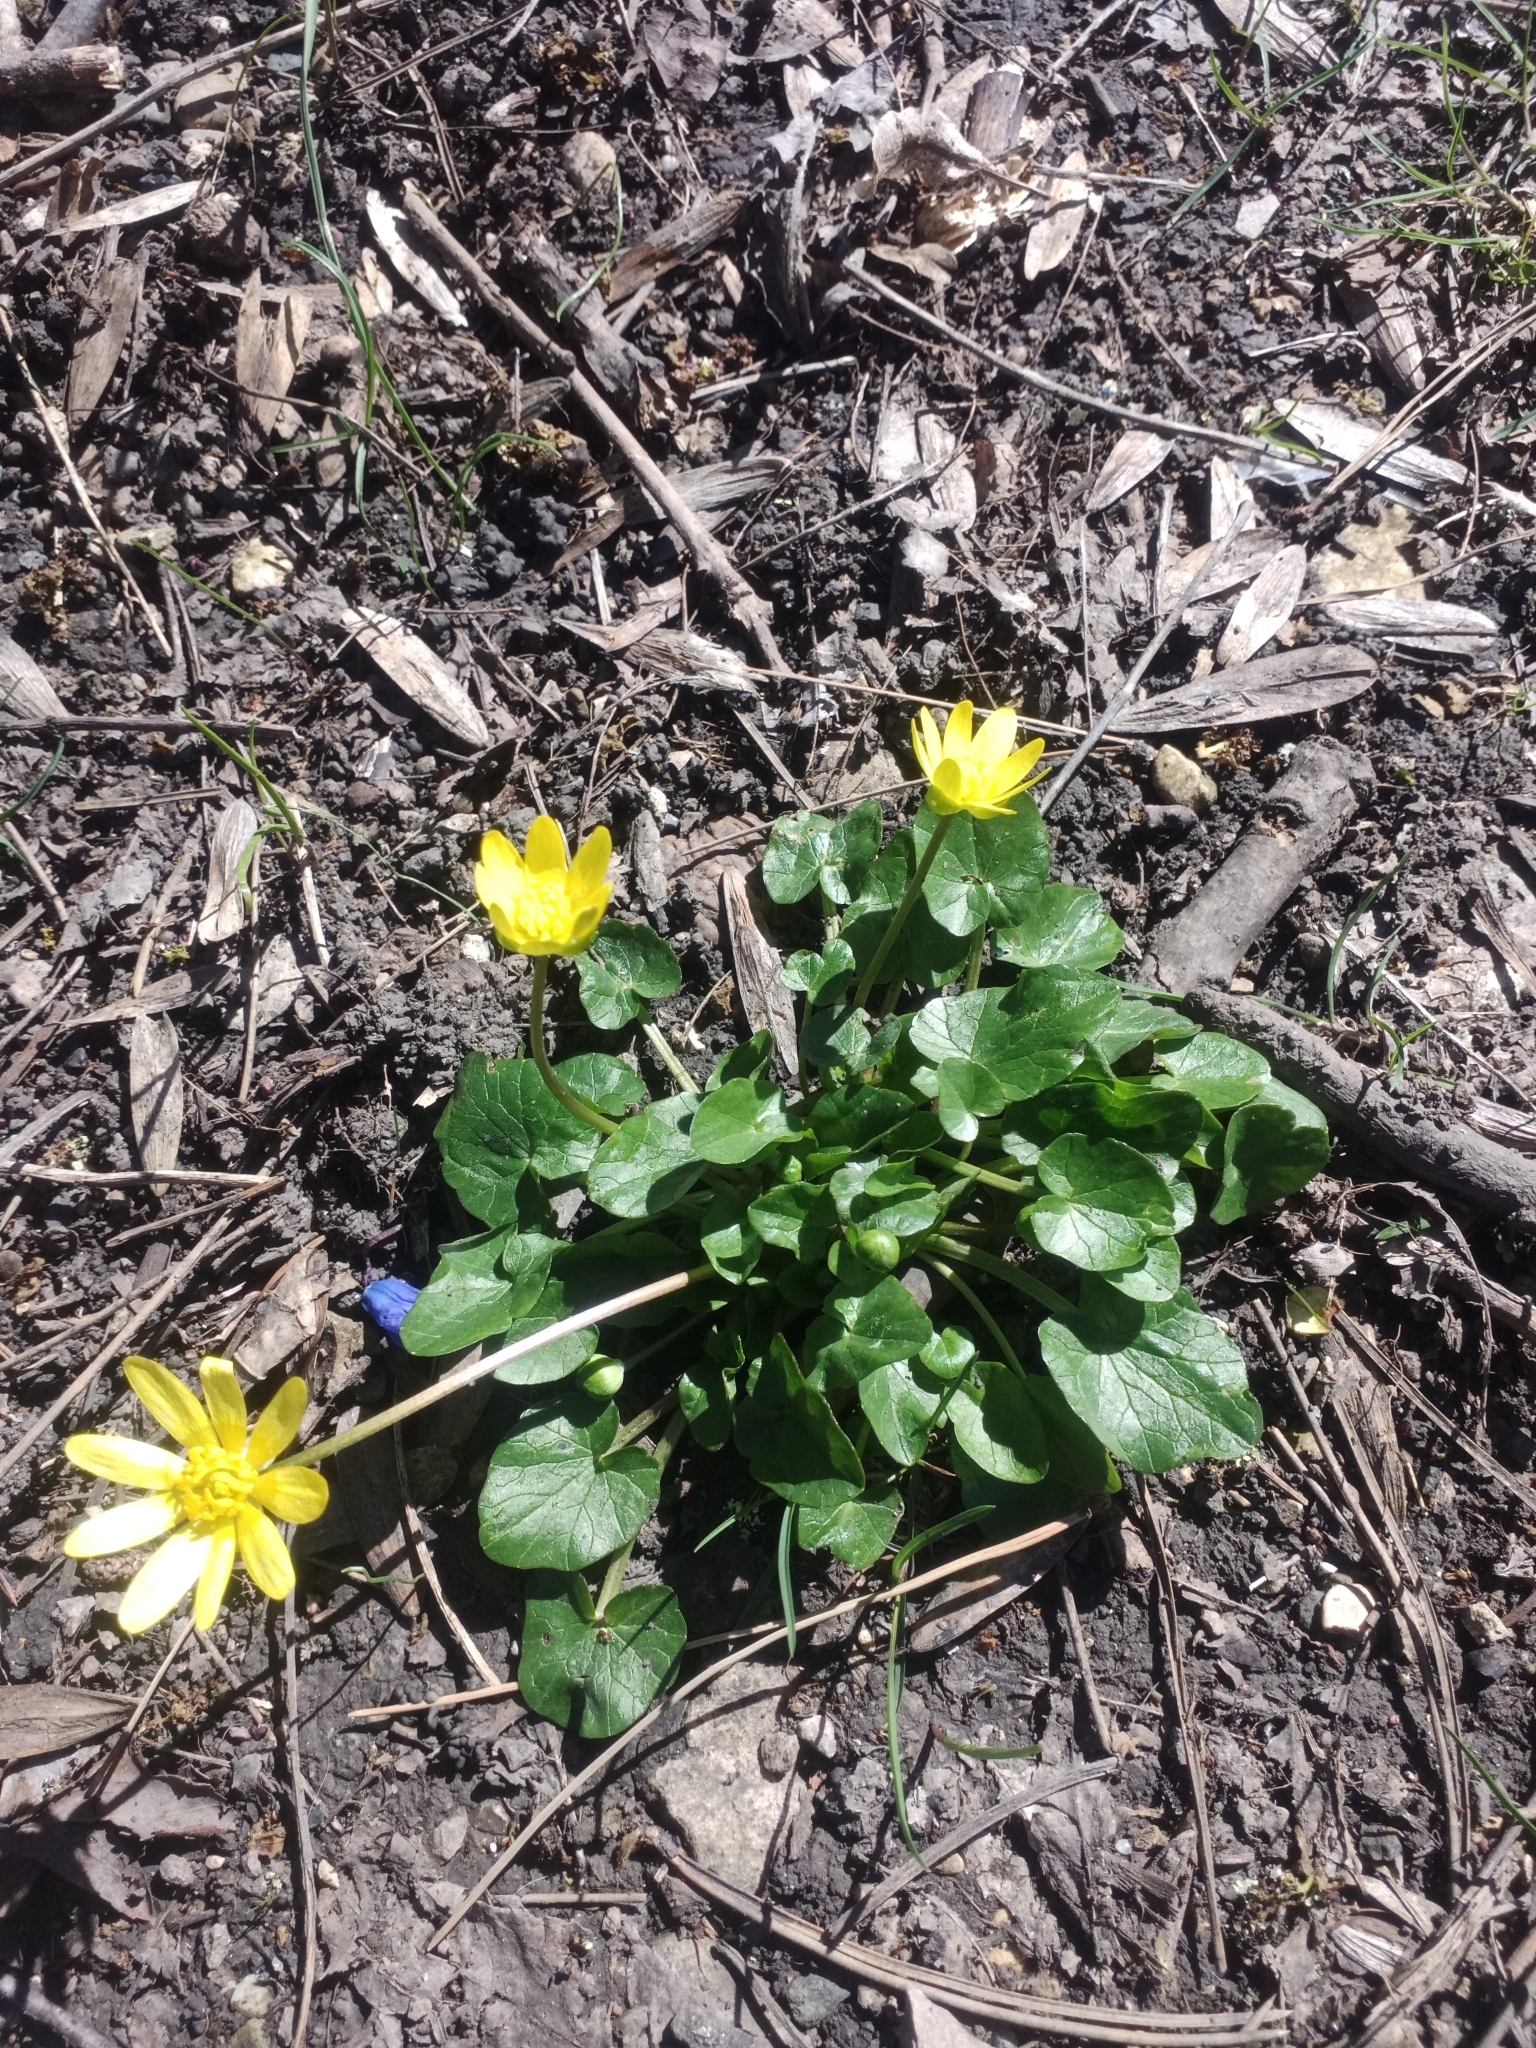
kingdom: Plantae
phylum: Tracheophyta
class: Magnoliopsida
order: Ranunculales
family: Ranunculaceae
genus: Ficaria
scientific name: Ficaria verna
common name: Lesser celandine
